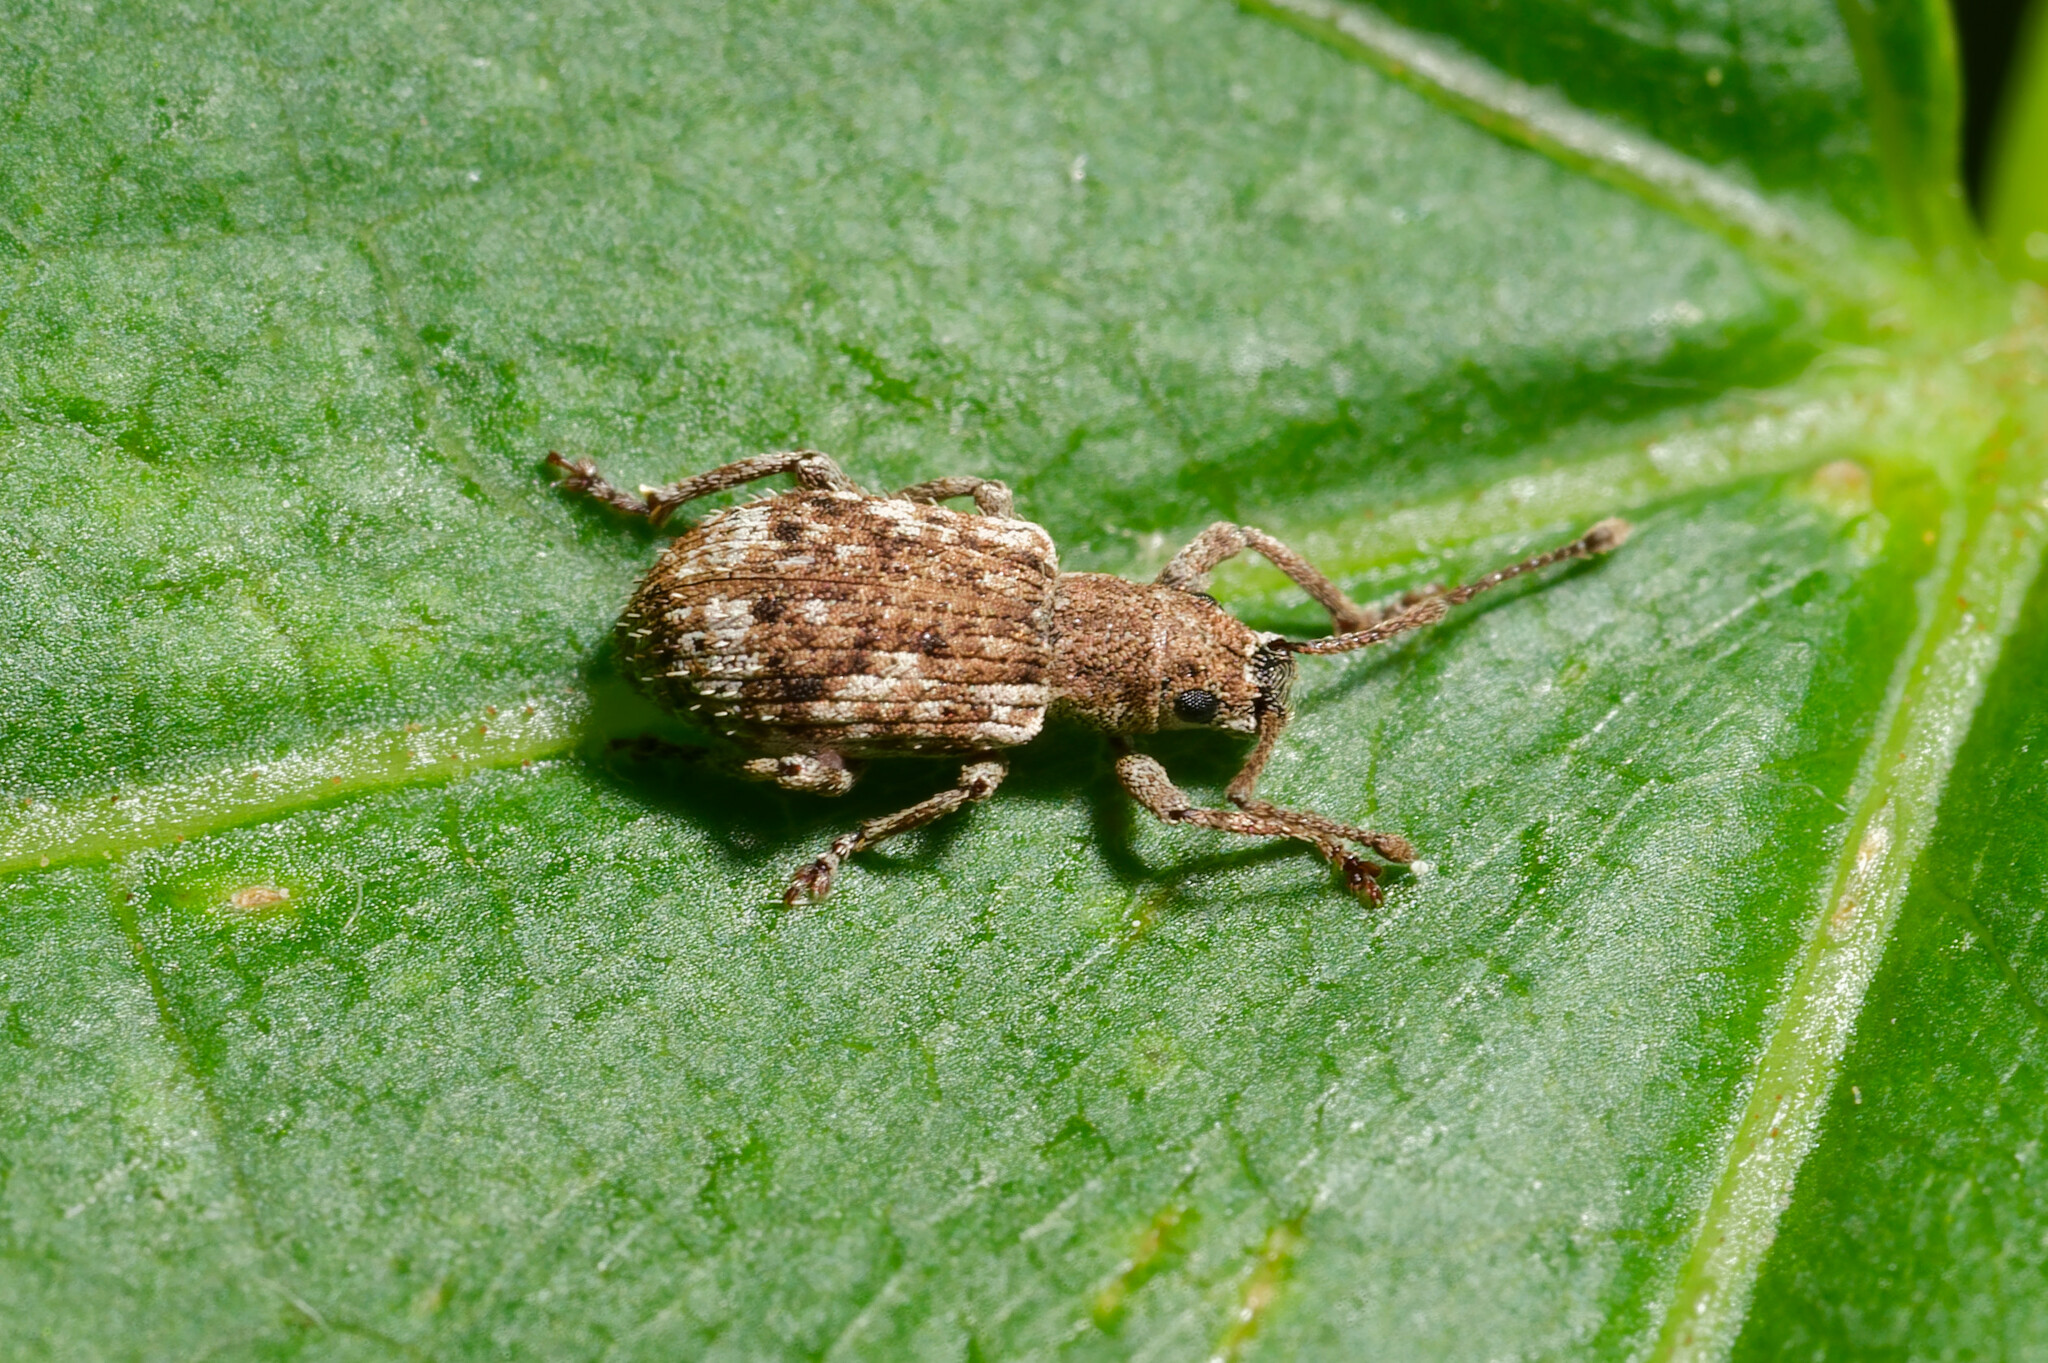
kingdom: Animalia
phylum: Arthropoda
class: Insecta
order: Coleoptera
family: Curculionidae
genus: Pseudoedophrys
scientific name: Pseudoedophrys hilleri
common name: Weevil
